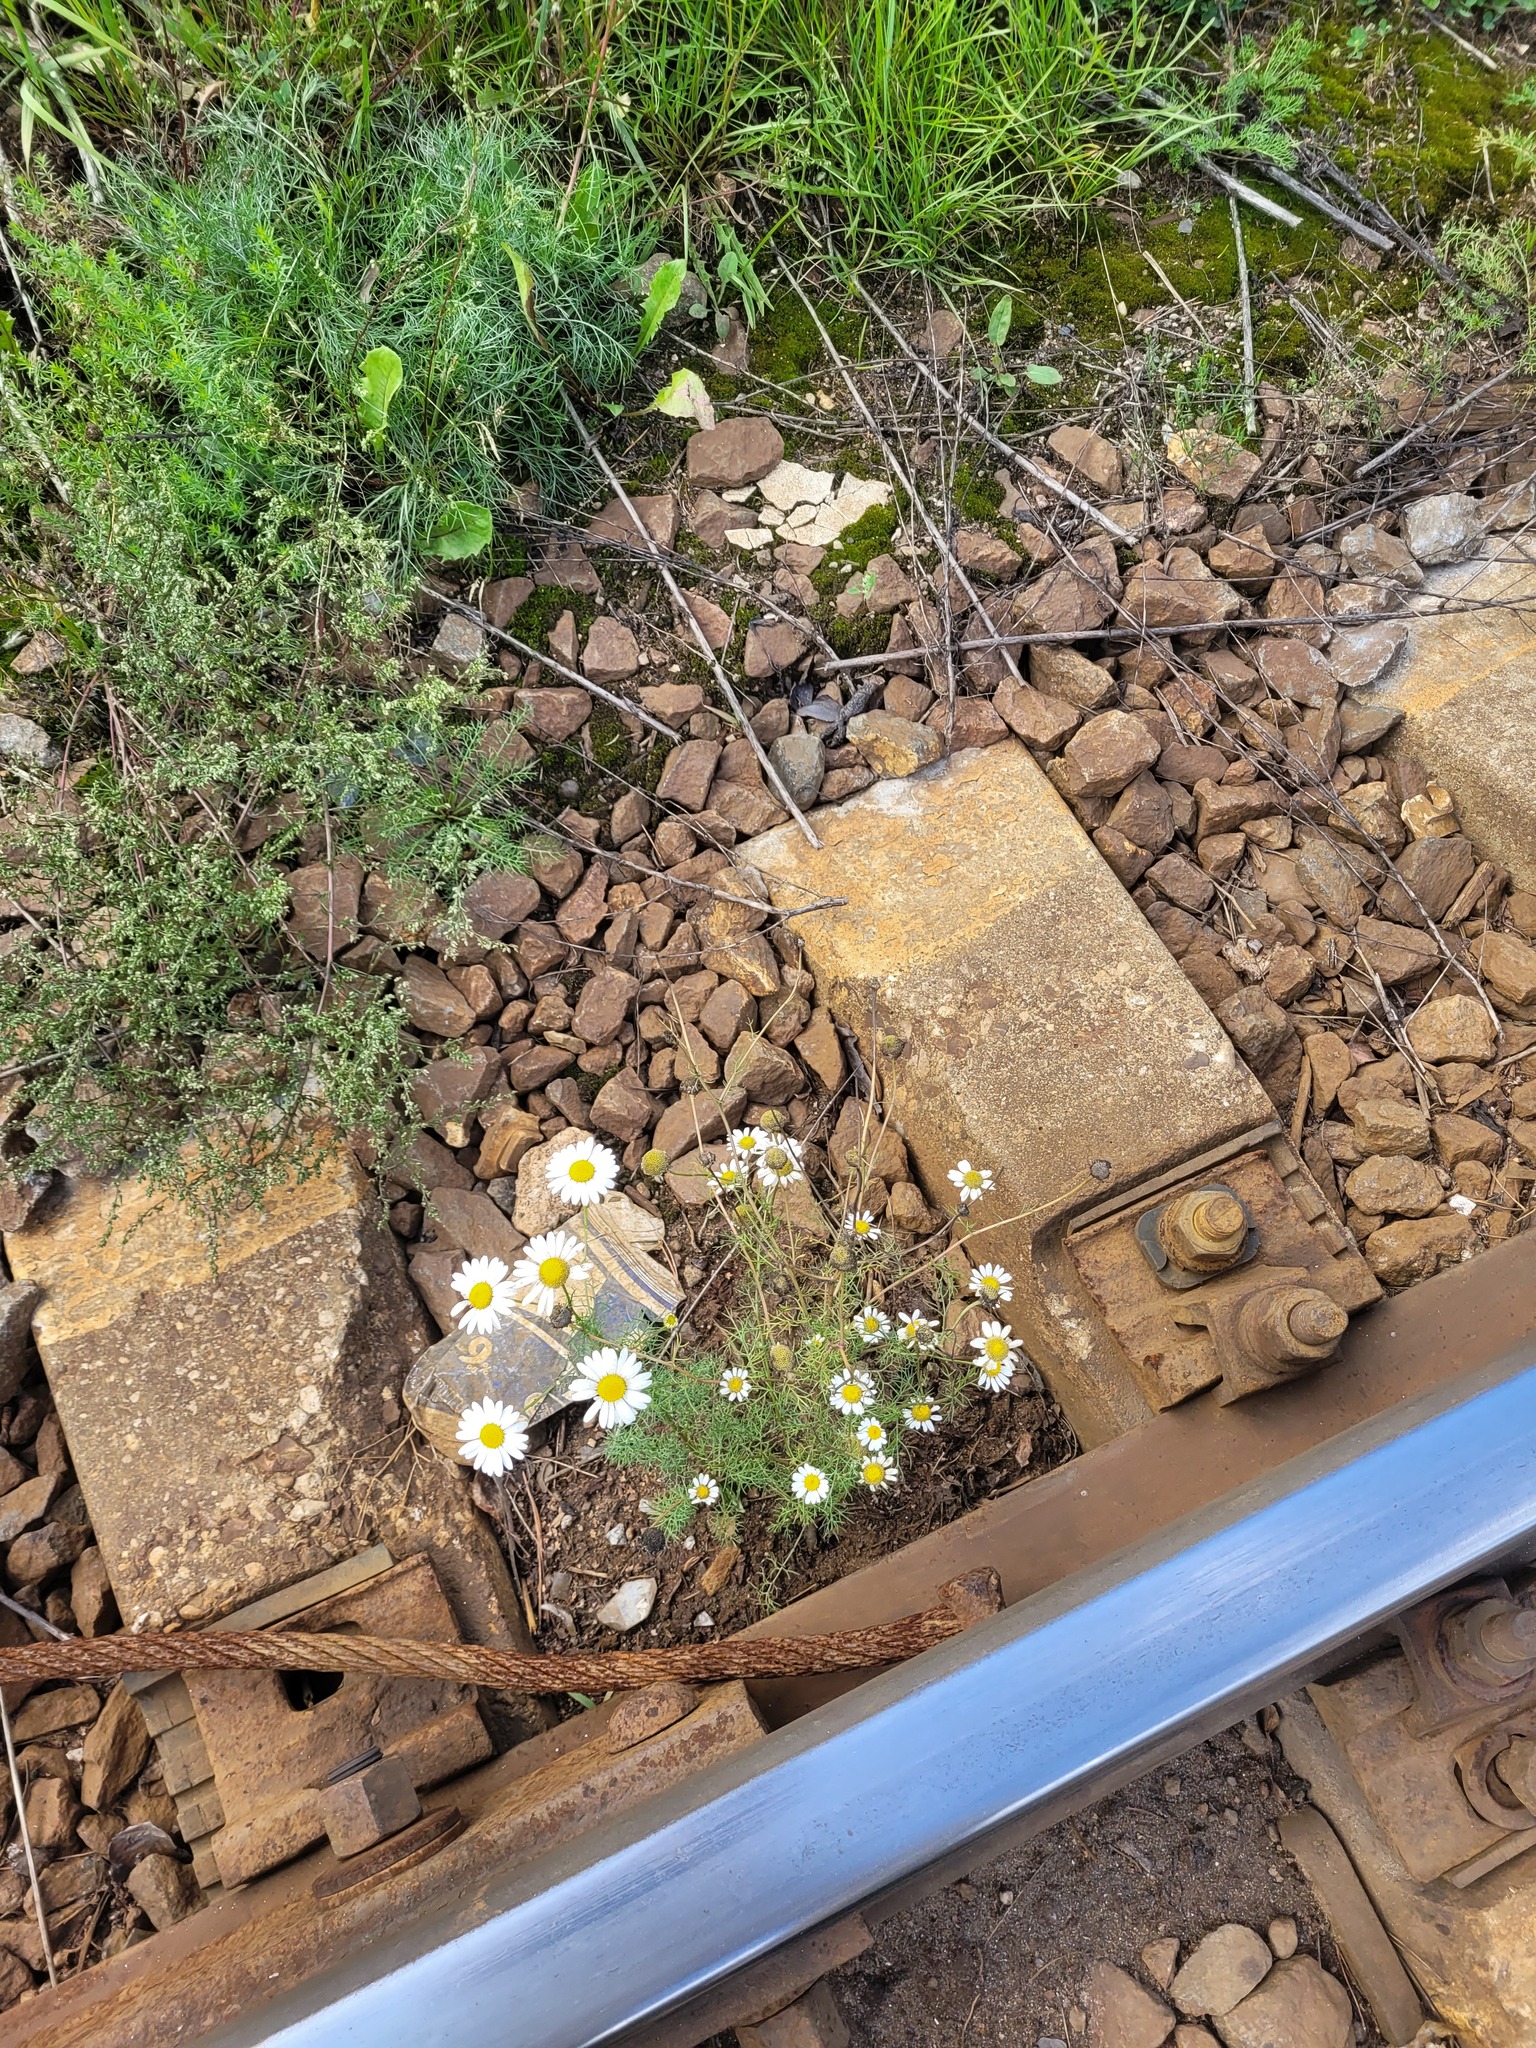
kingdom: Plantae
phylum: Tracheophyta
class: Magnoliopsida
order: Asterales
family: Asteraceae
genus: Tripleurospermum
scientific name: Tripleurospermum inodorum
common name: Scentless mayweed
